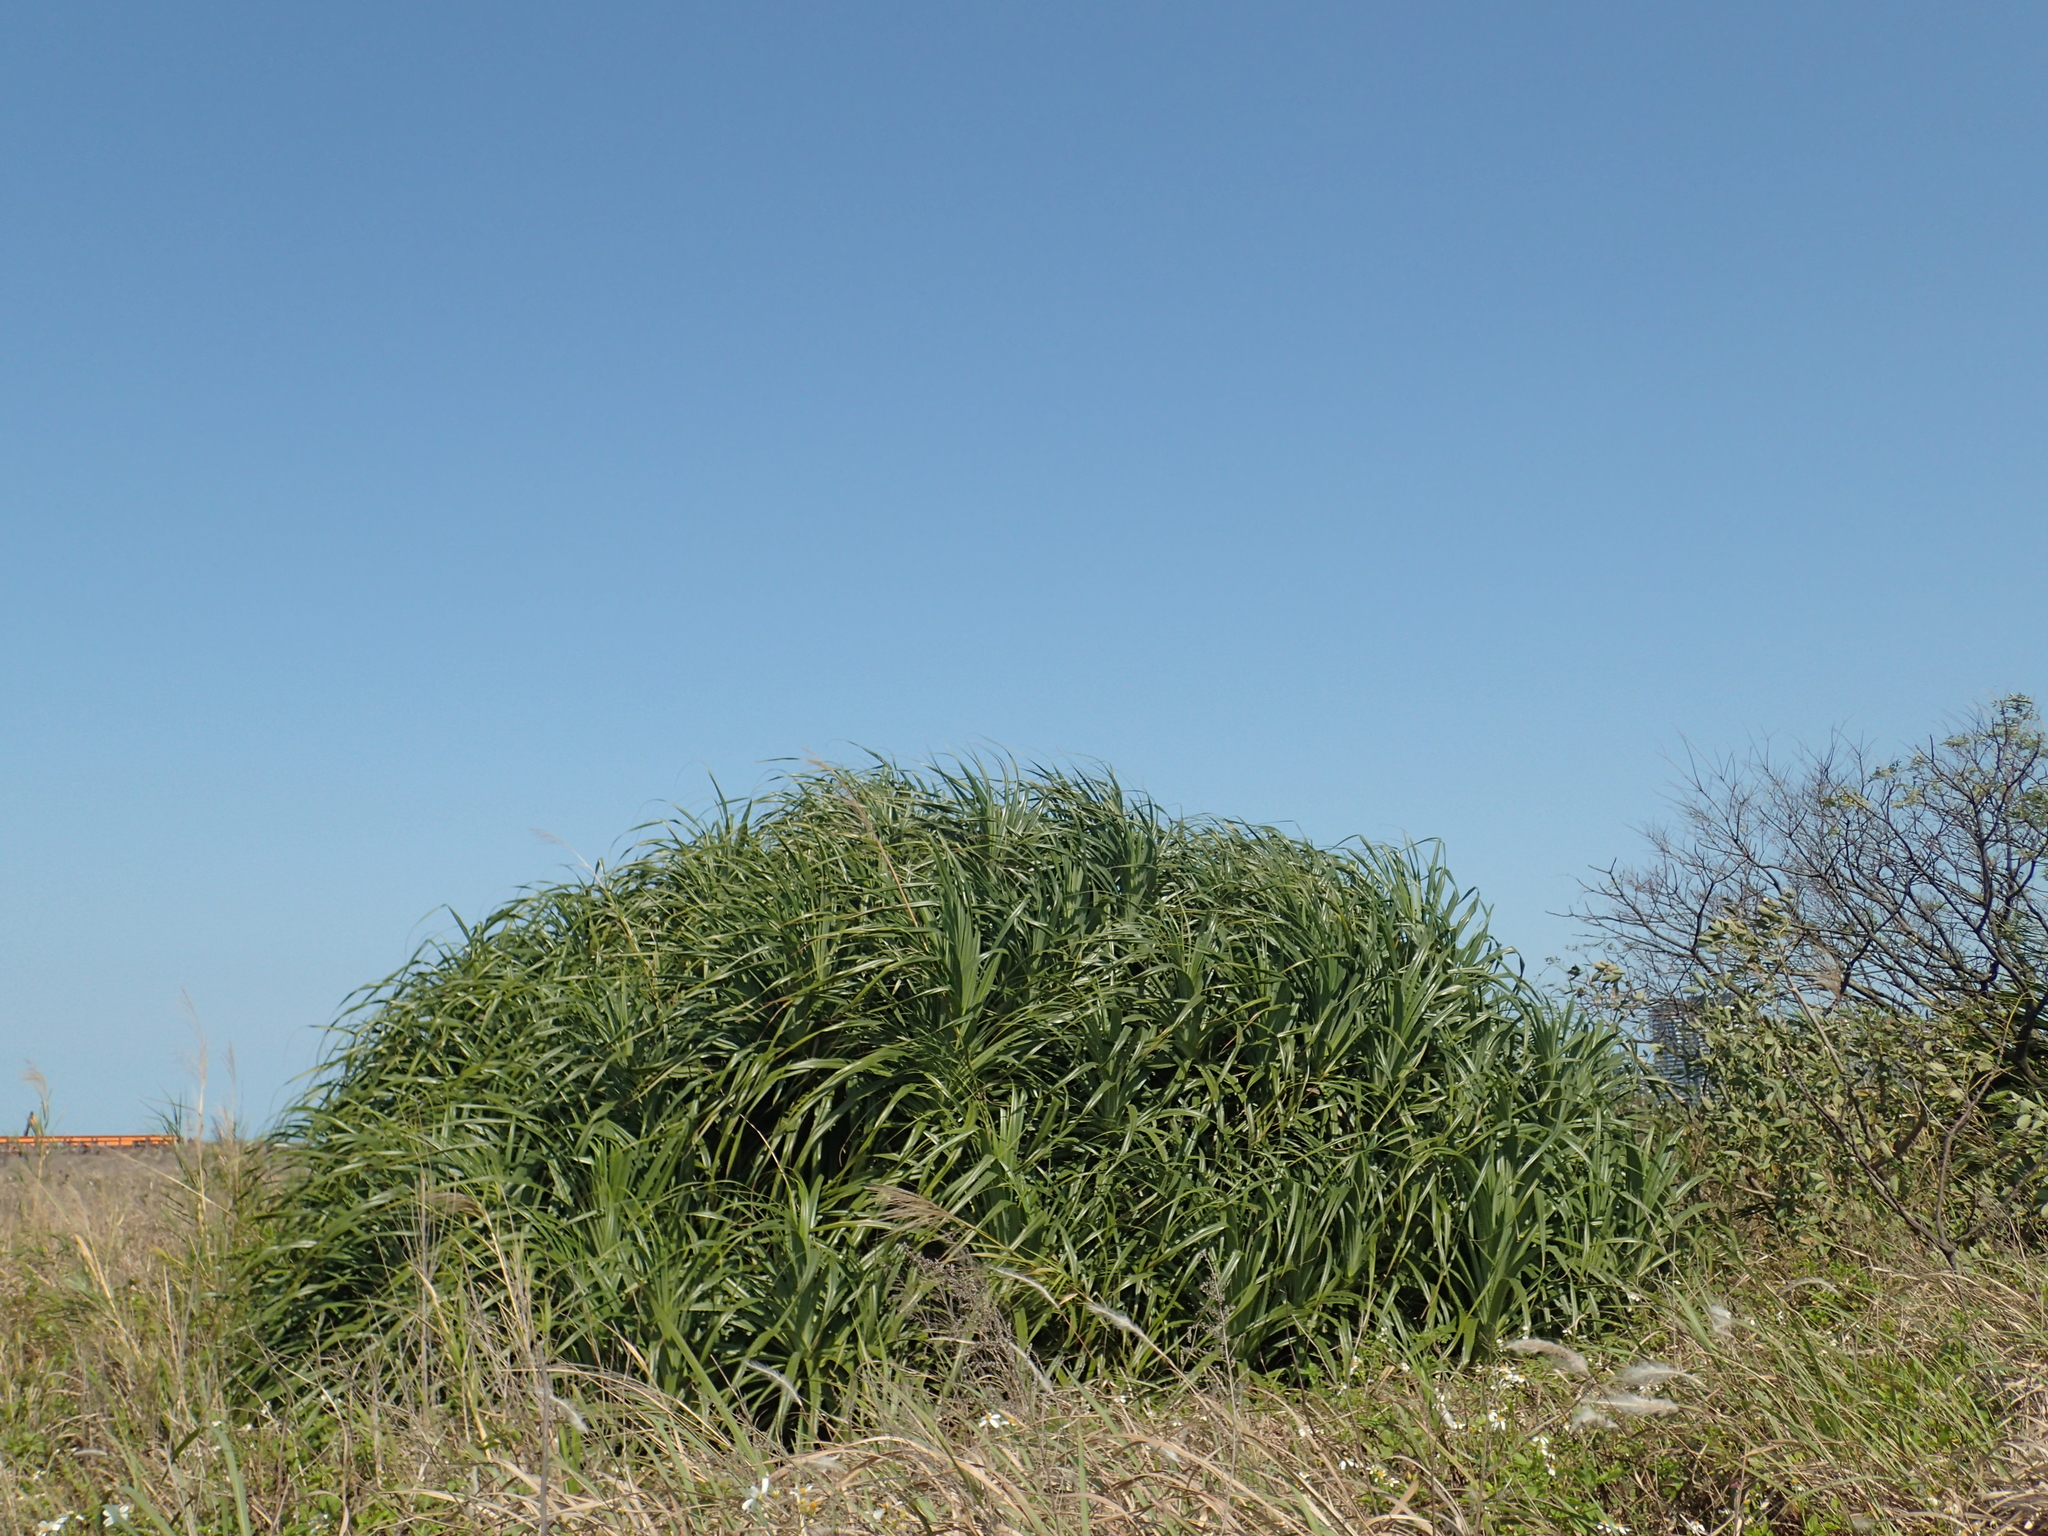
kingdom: Plantae
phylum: Tracheophyta
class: Liliopsida
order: Pandanales
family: Pandanaceae
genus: Pandanus
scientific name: Pandanus odorifer
